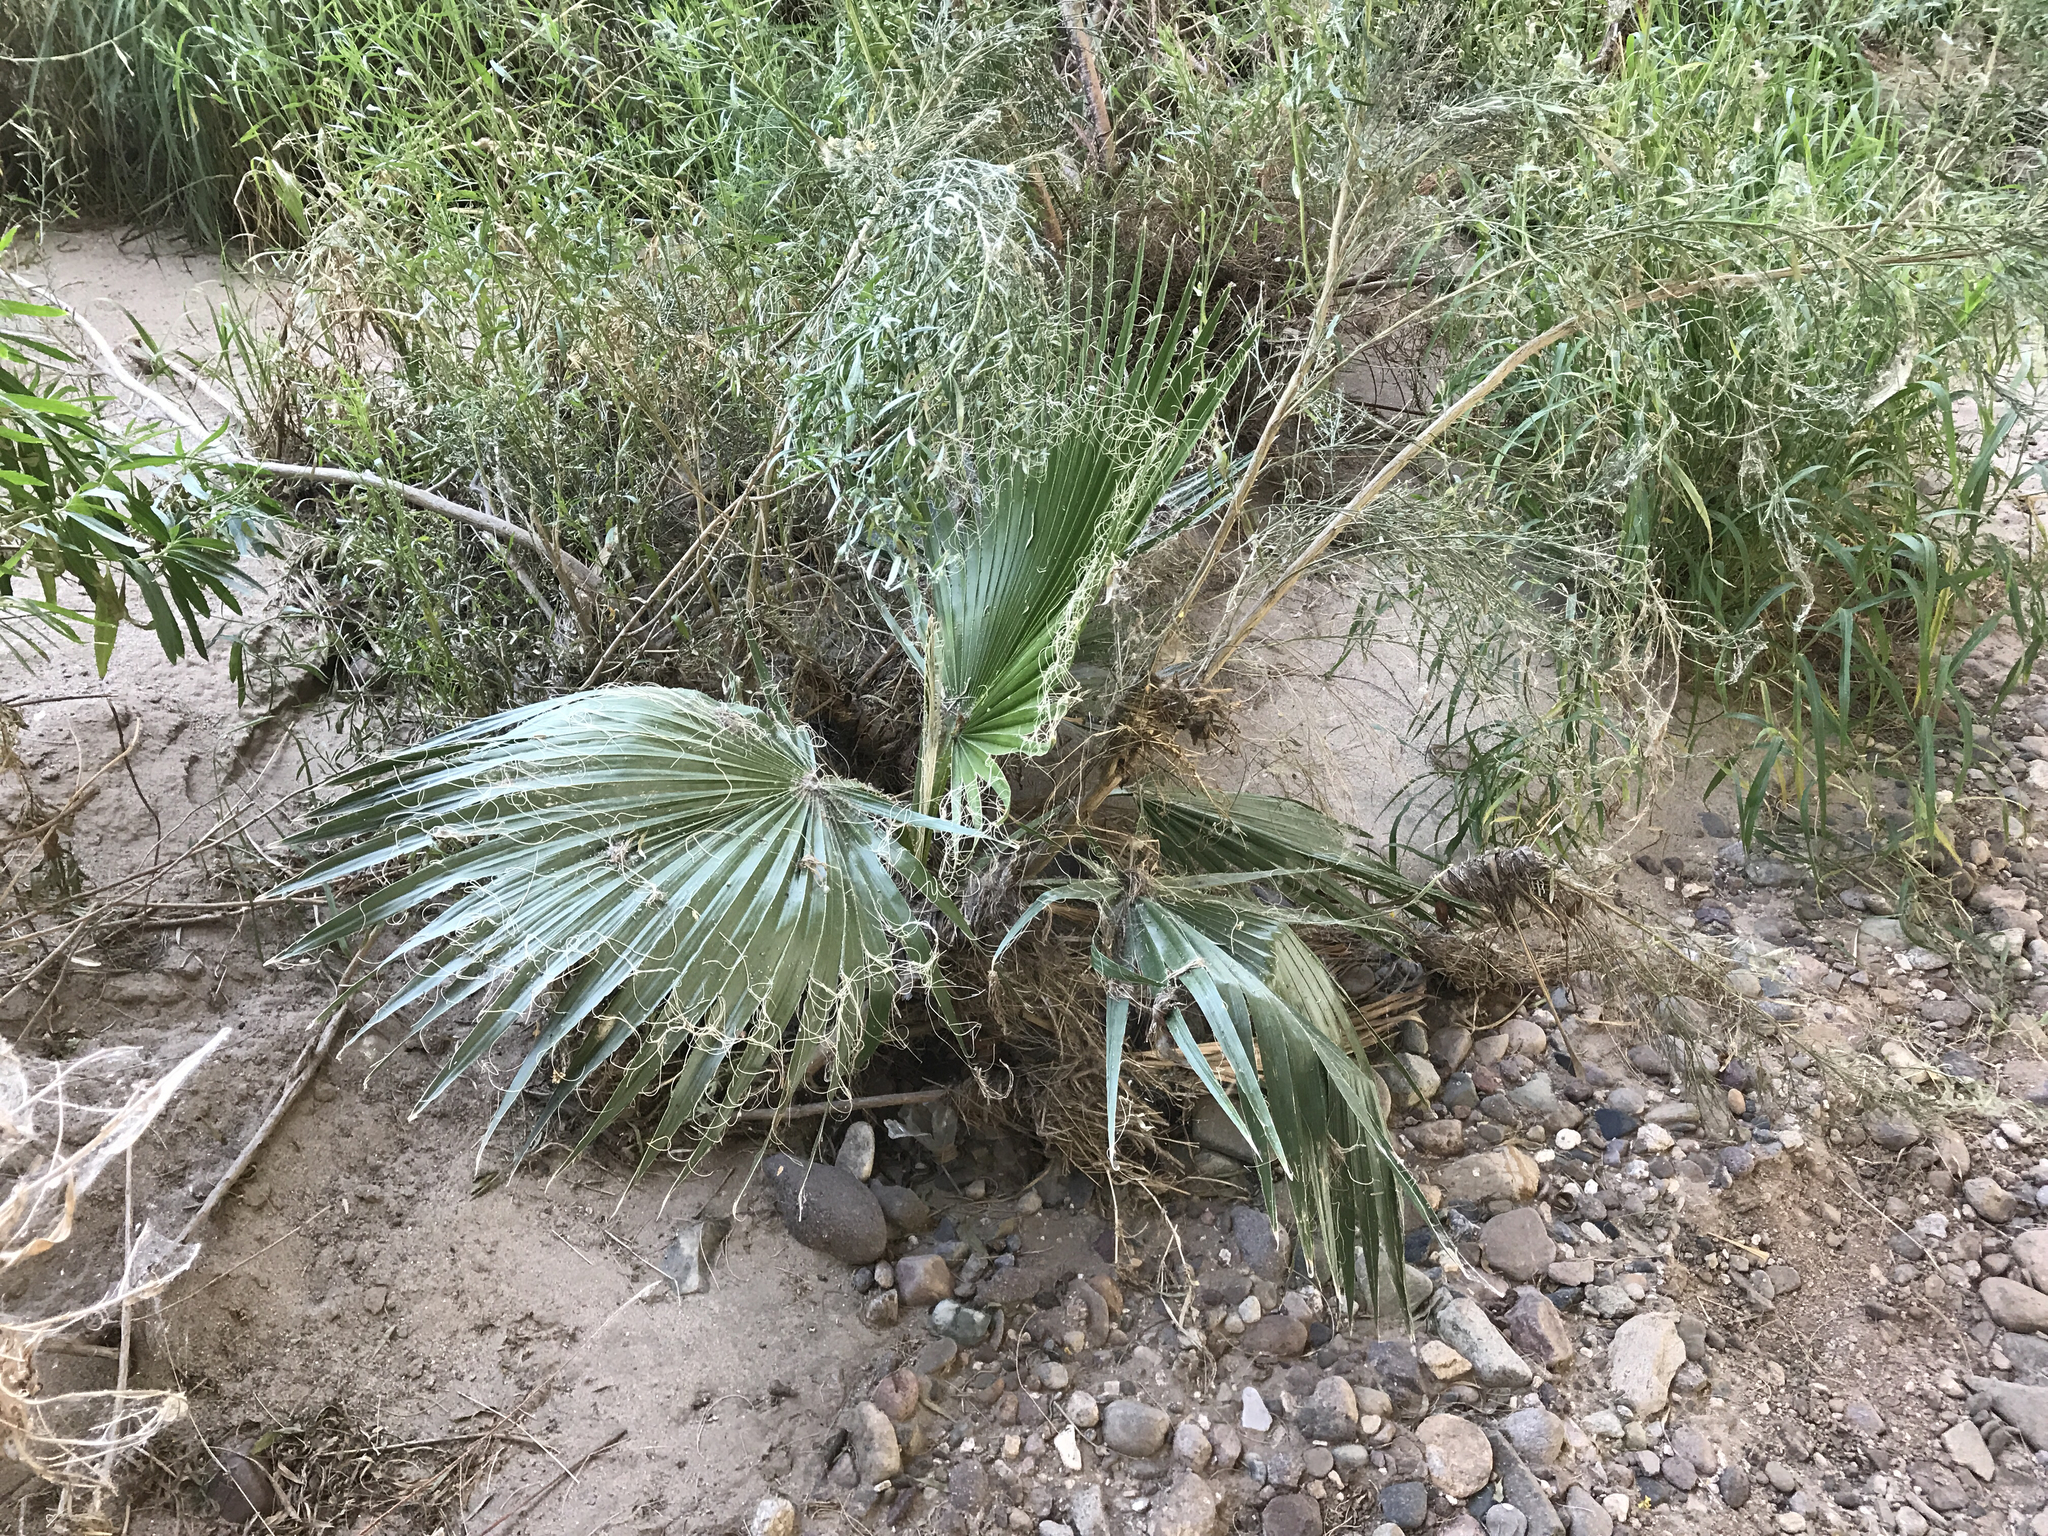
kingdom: Plantae
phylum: Tracheophyta
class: Liliopsida
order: Arecales
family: Arecaceae
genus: Washingtonia
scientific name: Washingtonia filifera
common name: California fan palm
